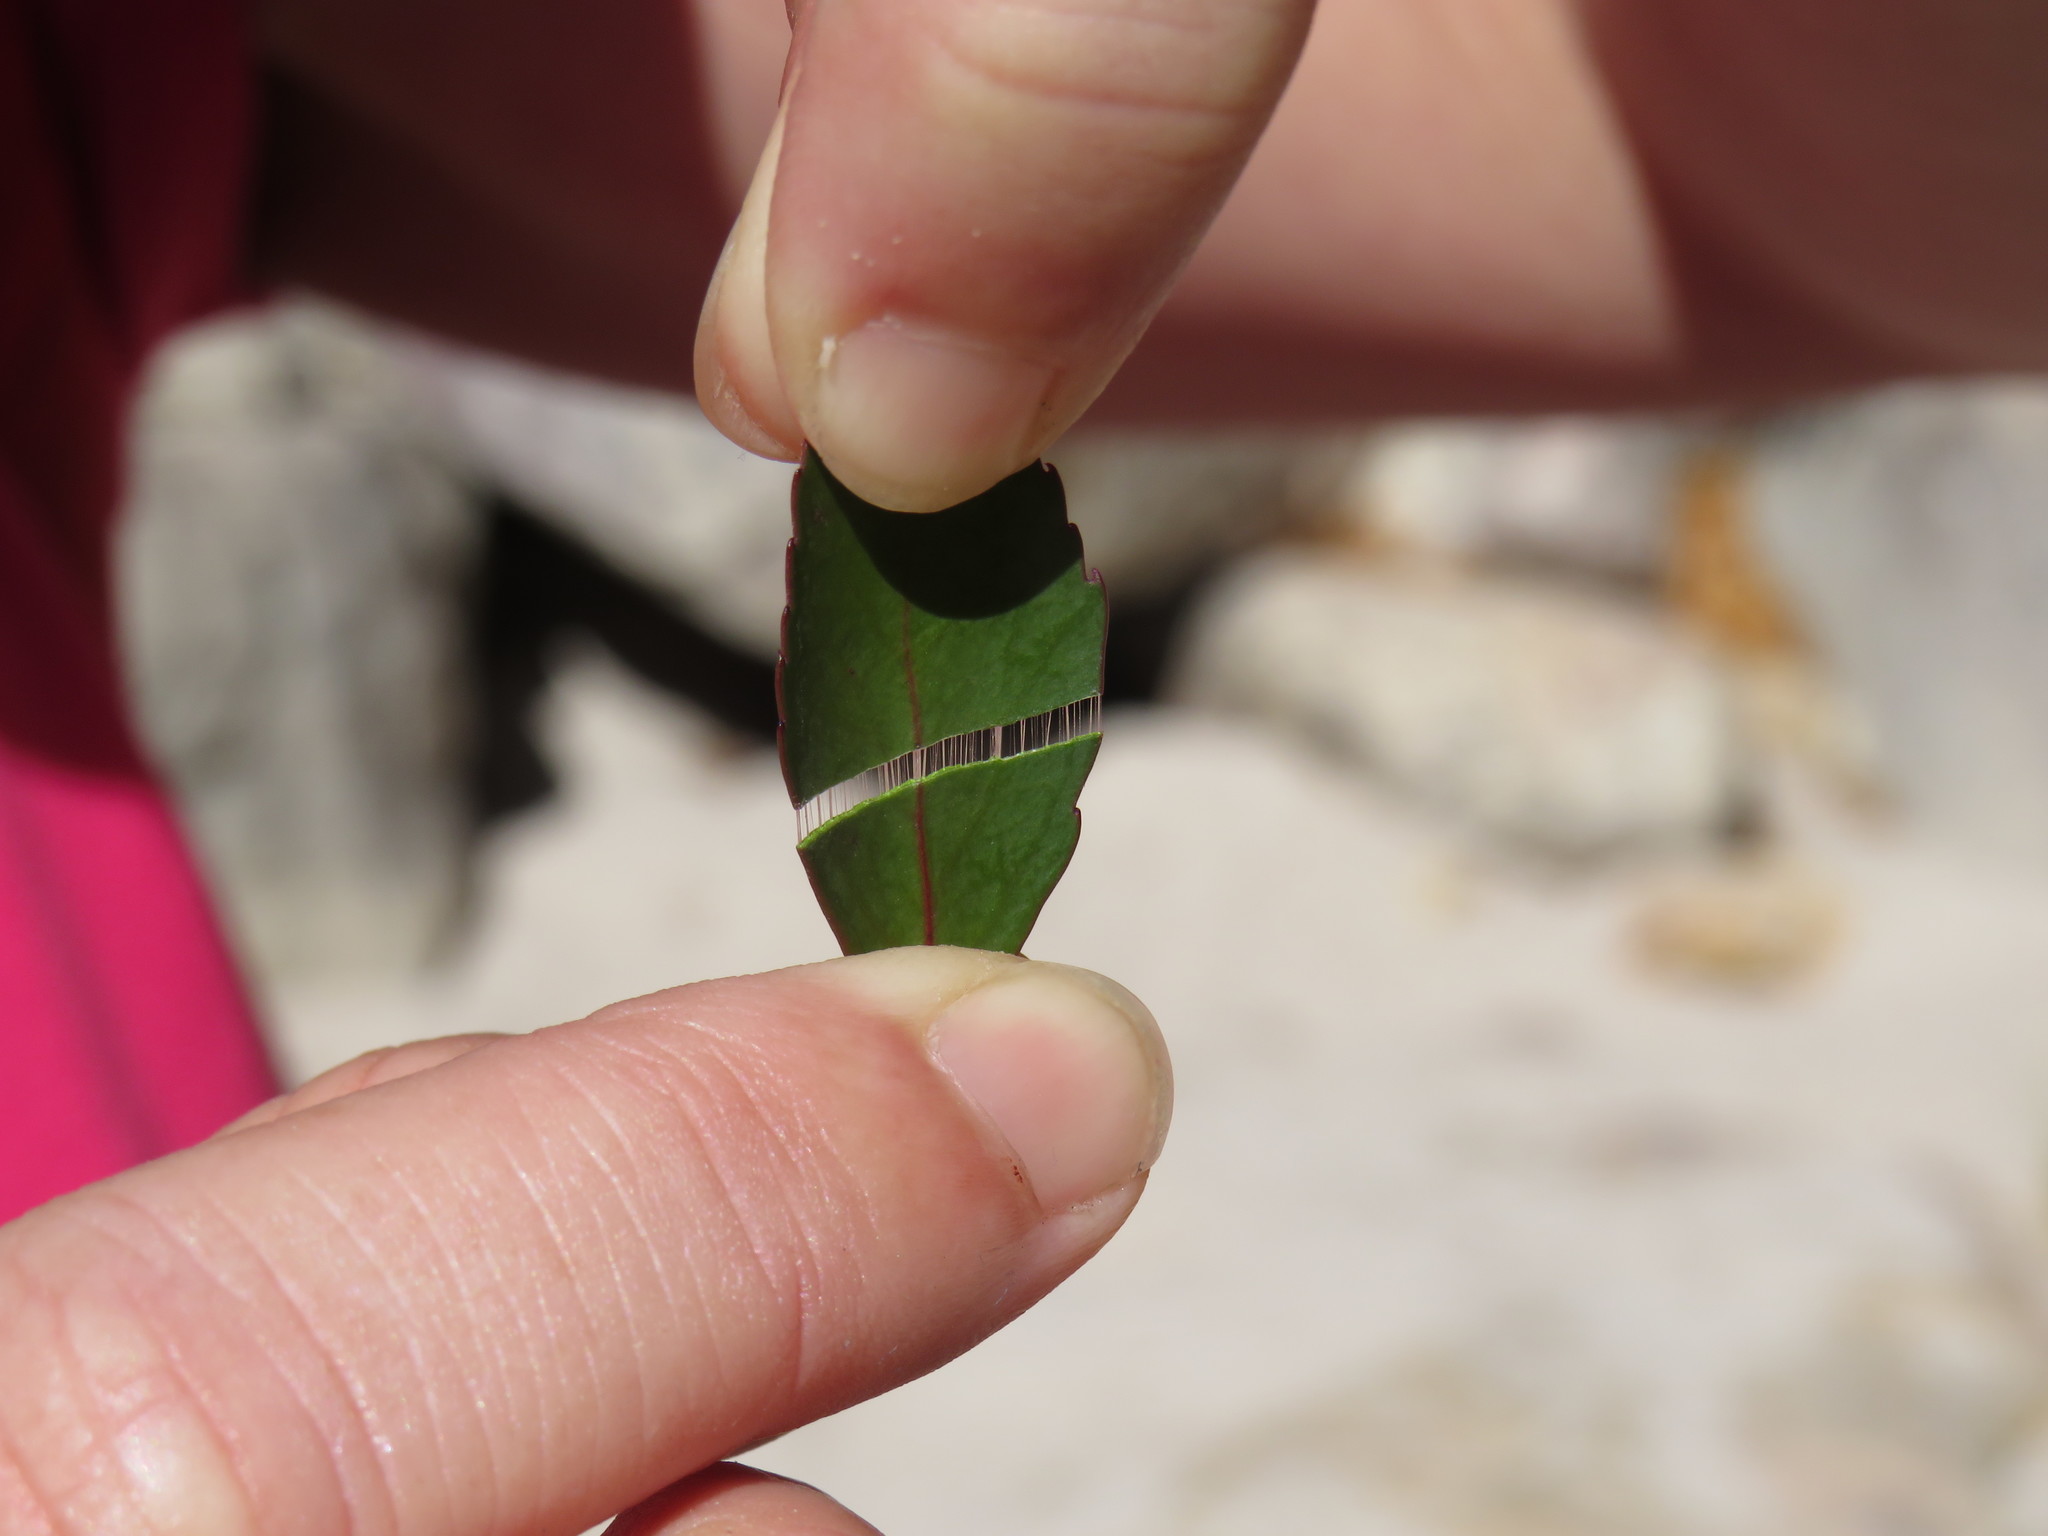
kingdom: Plantae
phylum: Tracheophyta
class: Magnoliopsida
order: Celastrales
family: Celastraceae
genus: Gymnosporia
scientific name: Gymnosporia acuminata
